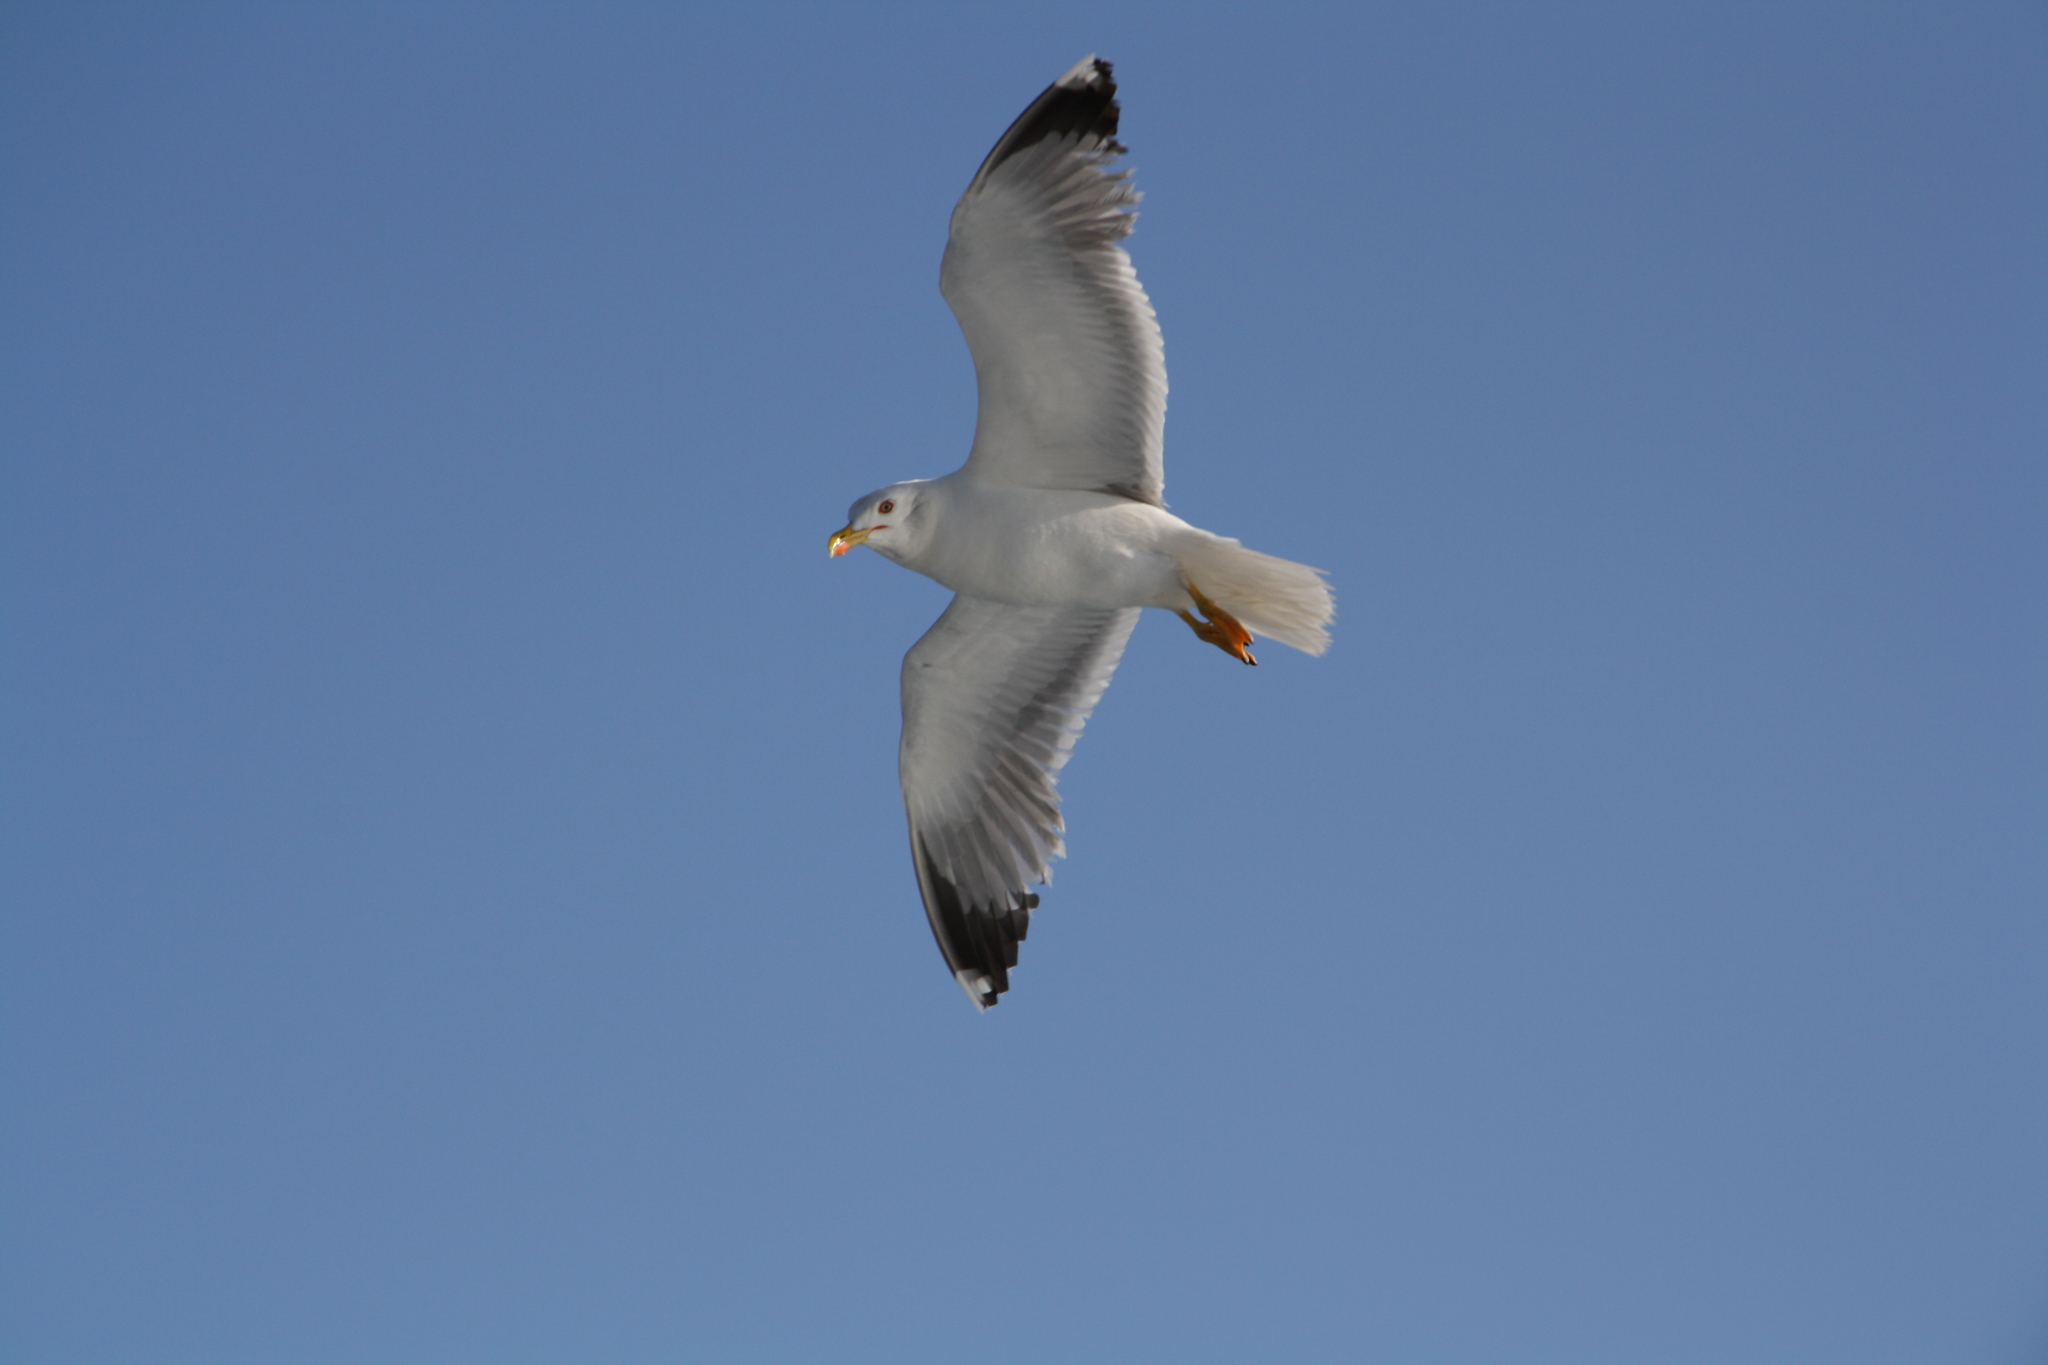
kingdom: Animalia
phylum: Chordata
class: Aves
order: Charadriiformes
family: Laridae
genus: Larus
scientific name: Larus michahellis
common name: Yellow-legged gull
